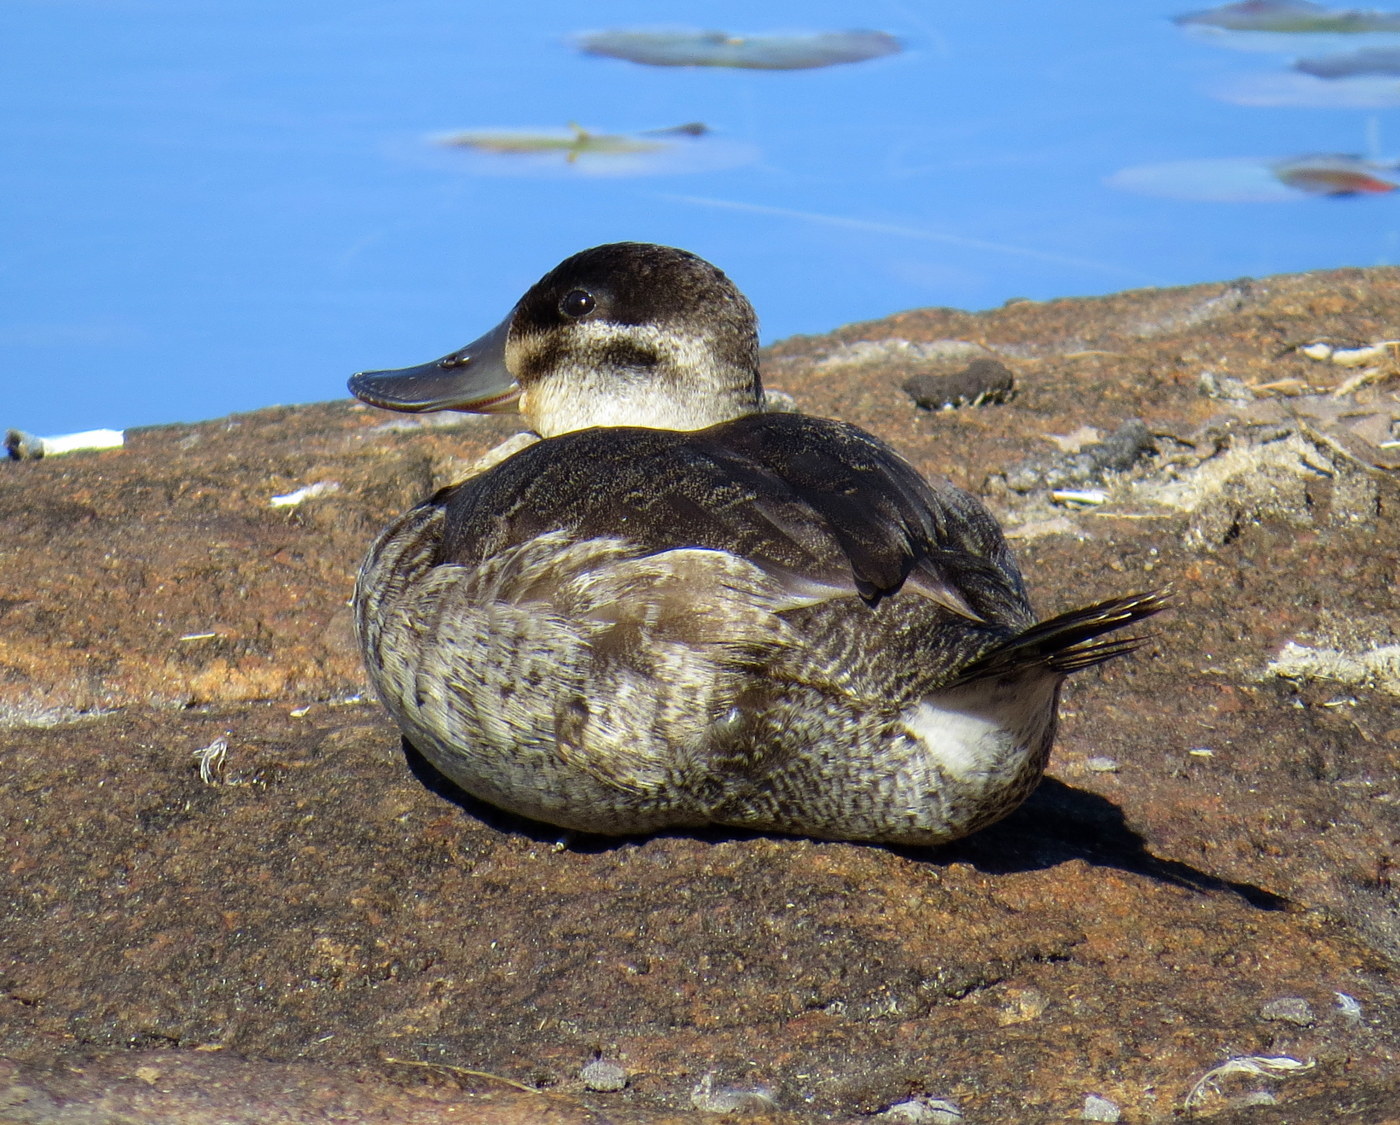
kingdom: Animalia
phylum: Chordata
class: Aves
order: Anseriformes
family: Anatidae
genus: Oxyura
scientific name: Oxyura jamaicensis
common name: Ruddy duck
